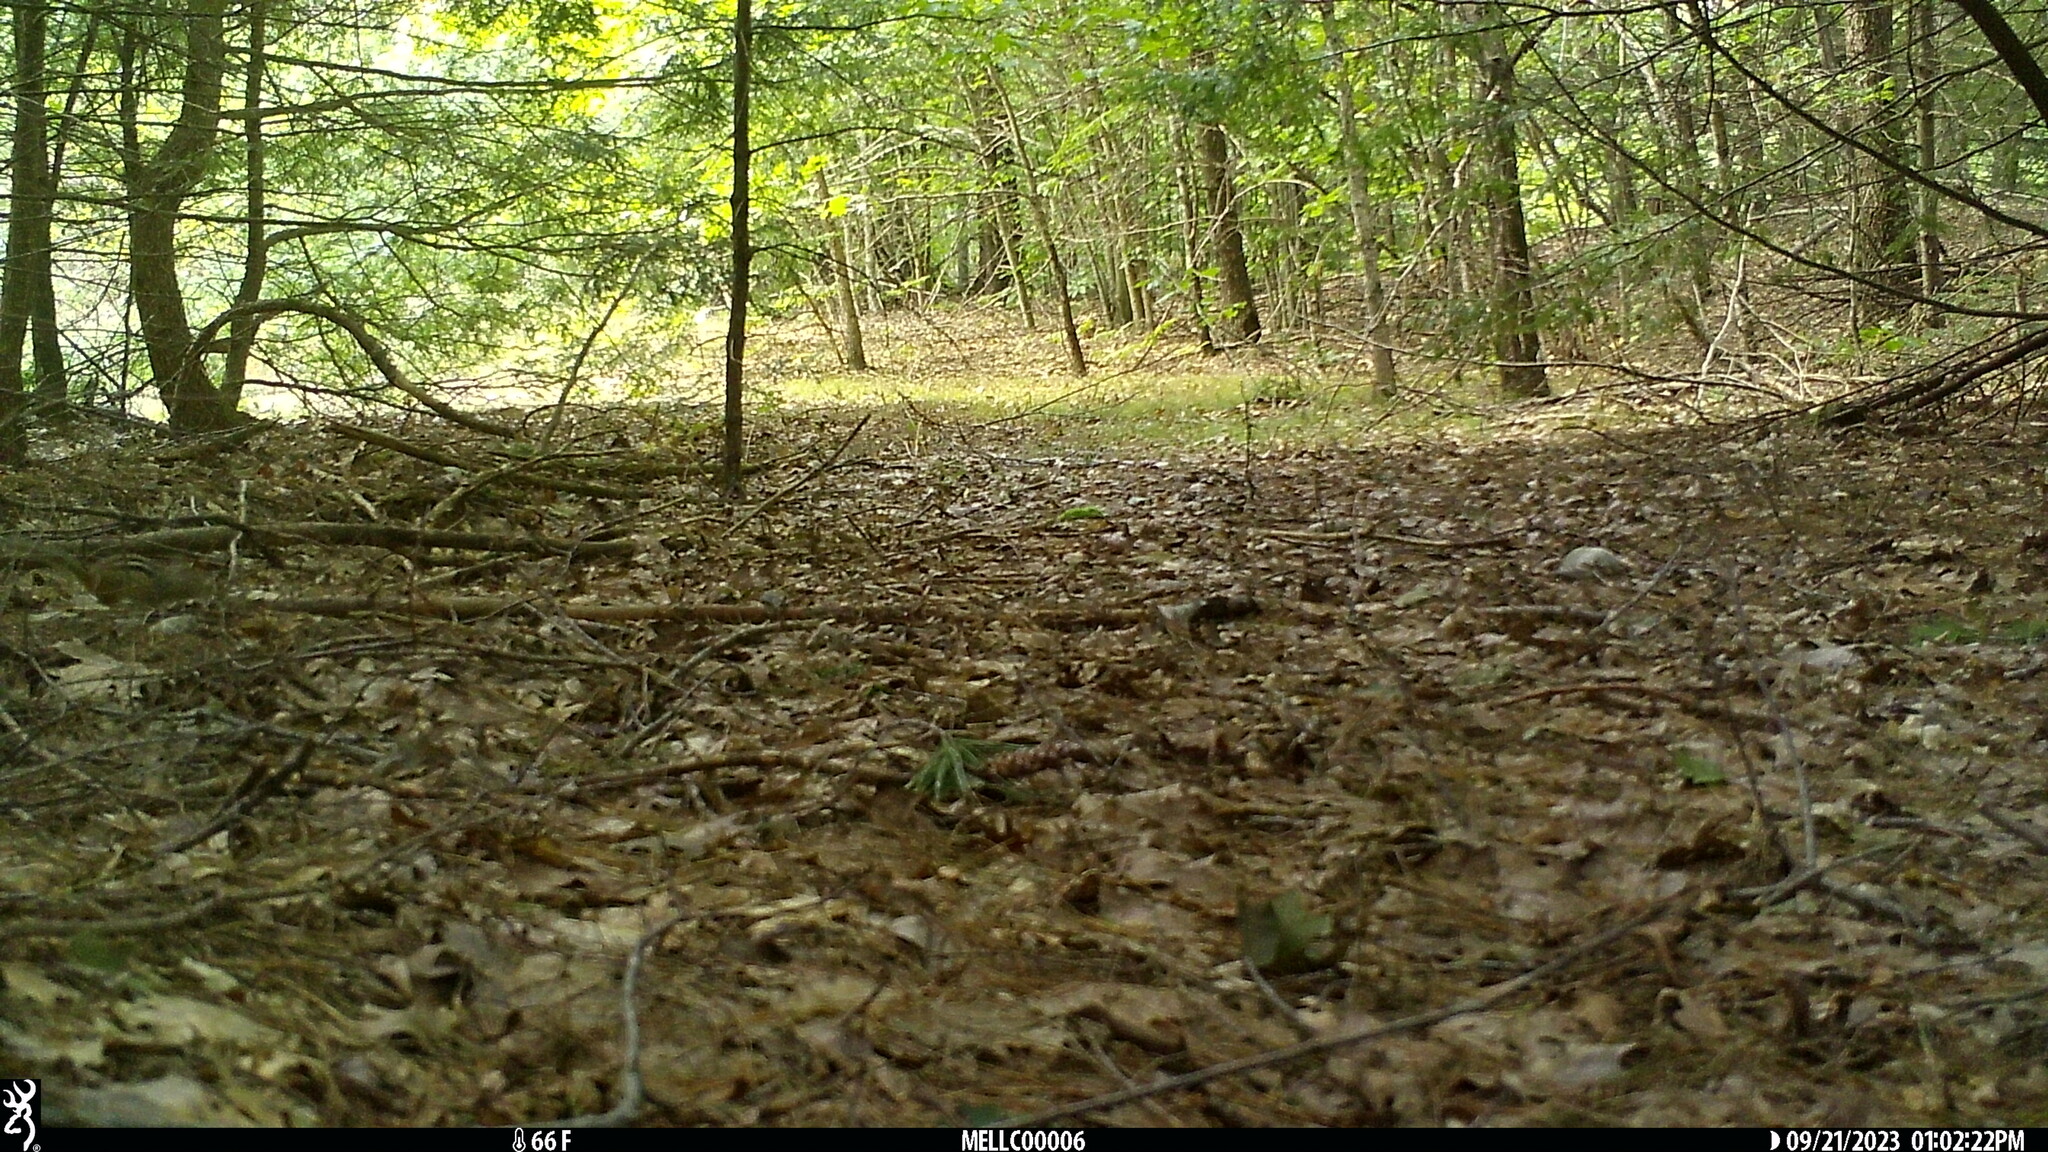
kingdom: Animalia
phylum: Chordata
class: Mammalia
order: Rodentia
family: Sciuridae
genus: Tamias
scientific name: Tamias striatus
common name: Eastern chipmunk
